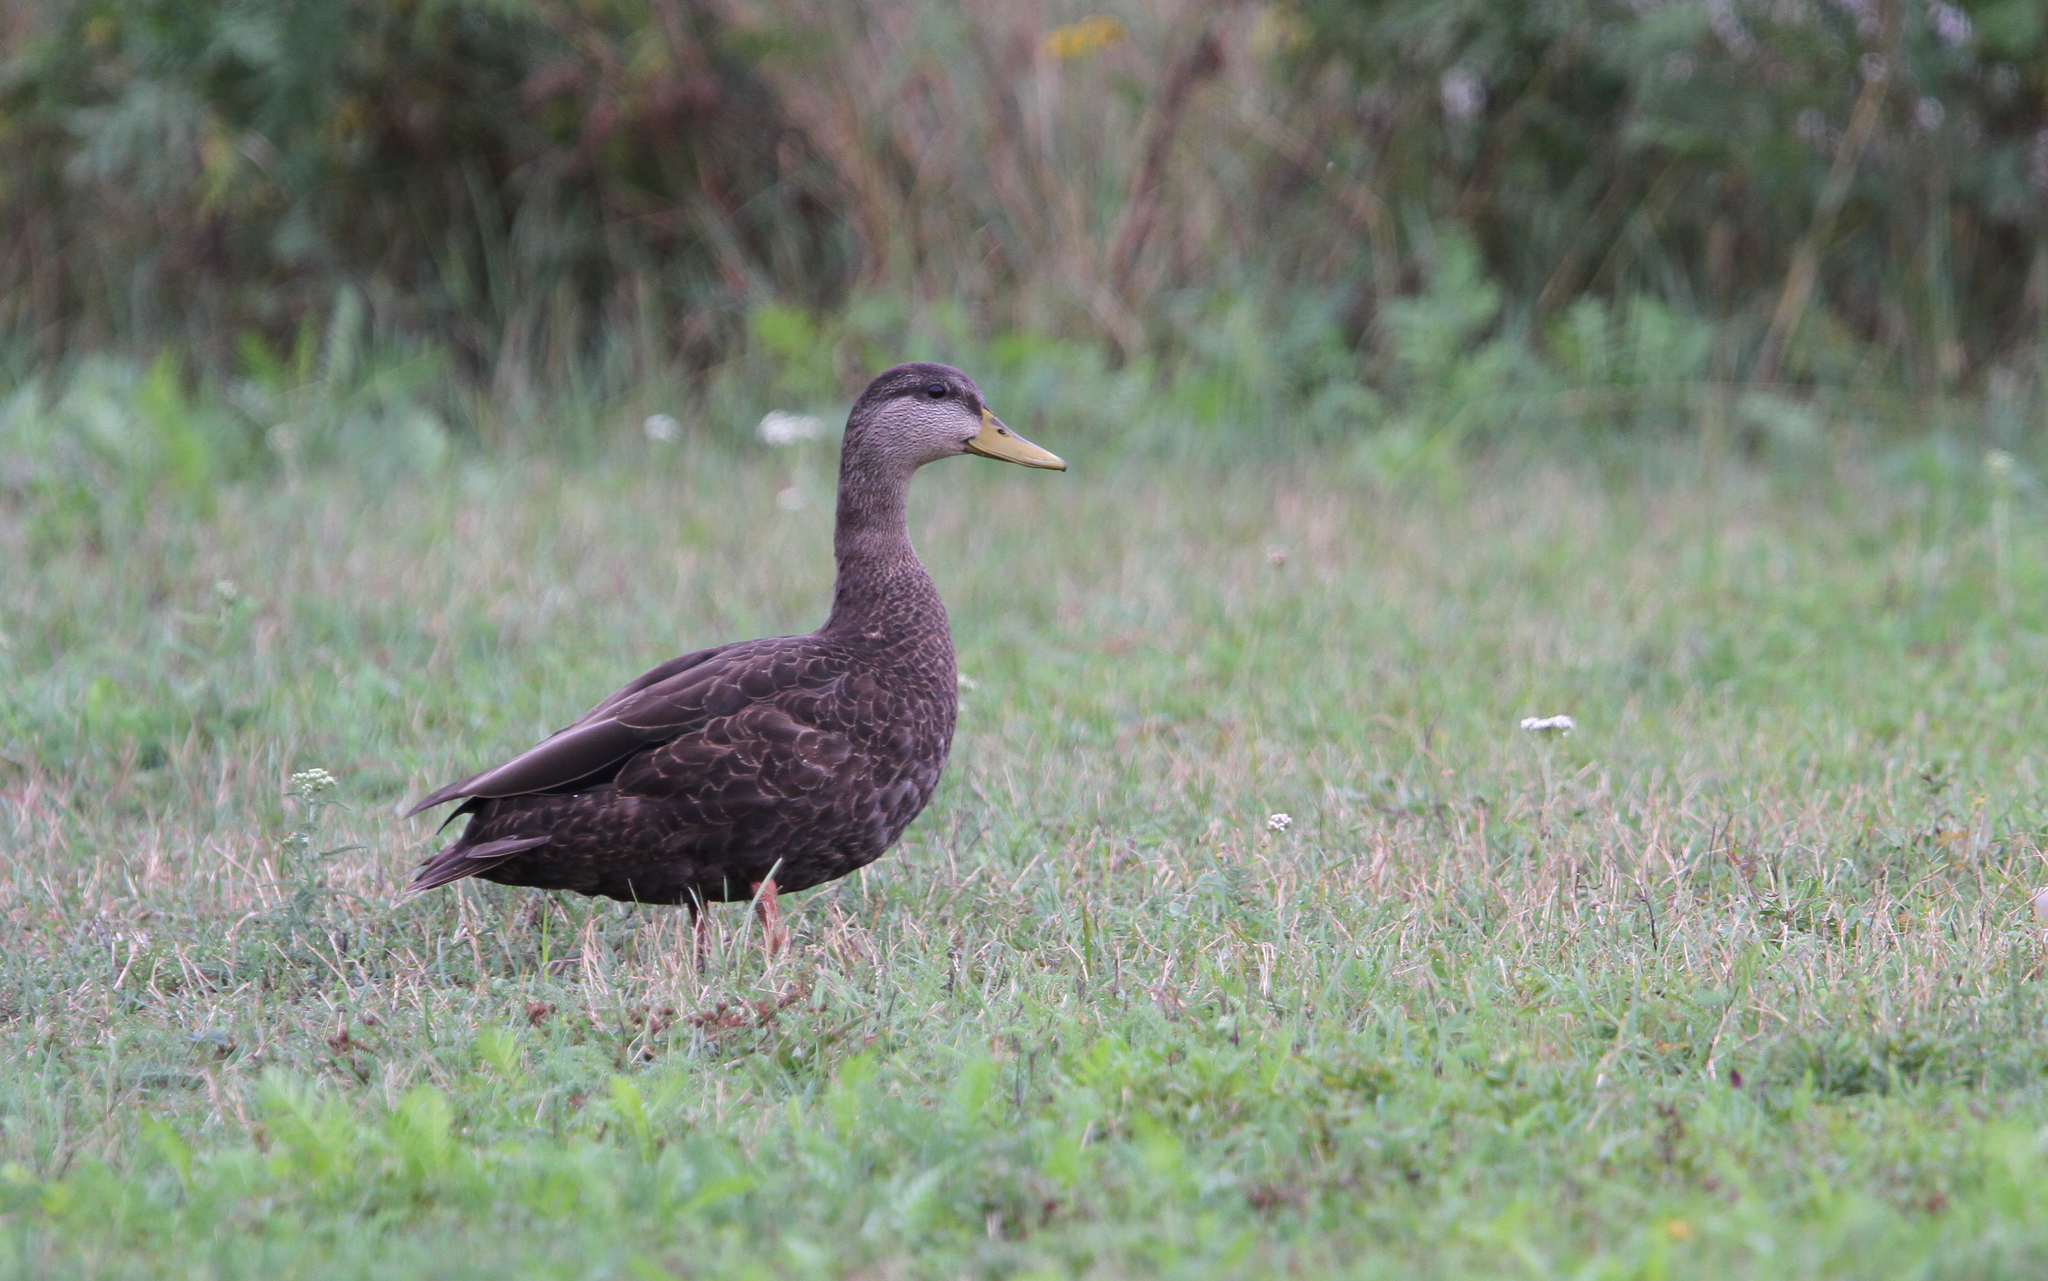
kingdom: Animalia
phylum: Chordata
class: Aves
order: Anseriformes
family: Anatidae
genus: Anas
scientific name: Anas rubripes
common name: American black duck
